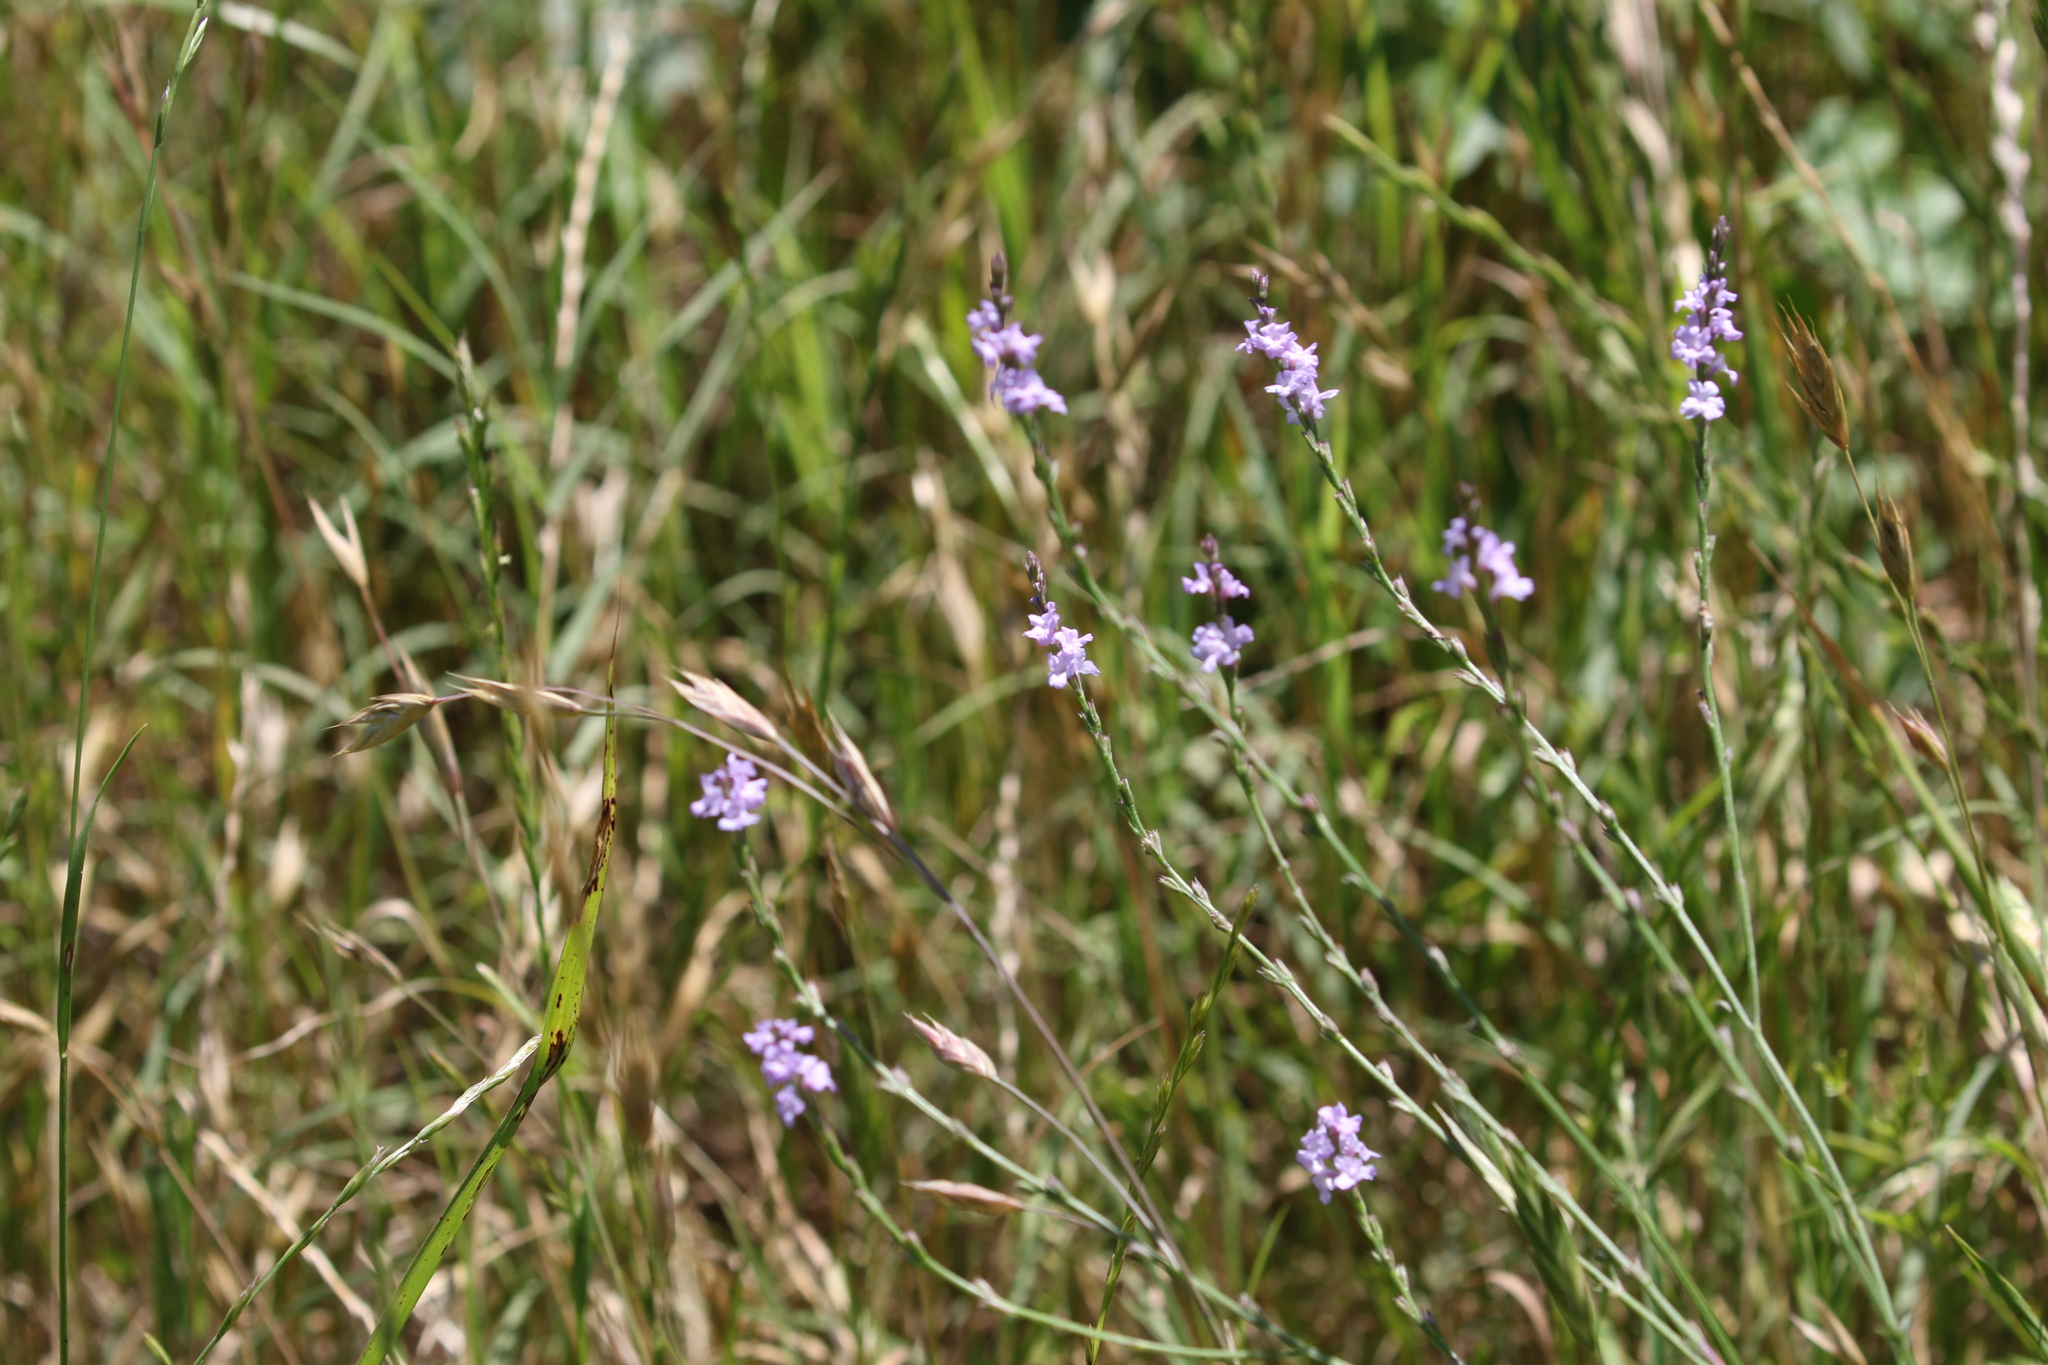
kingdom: Plantae
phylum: Tracheophyta
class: Magnoliopsida
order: Lamiales
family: Verbenaceae
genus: Verbena
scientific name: Verbena halei
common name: Texas vervain
